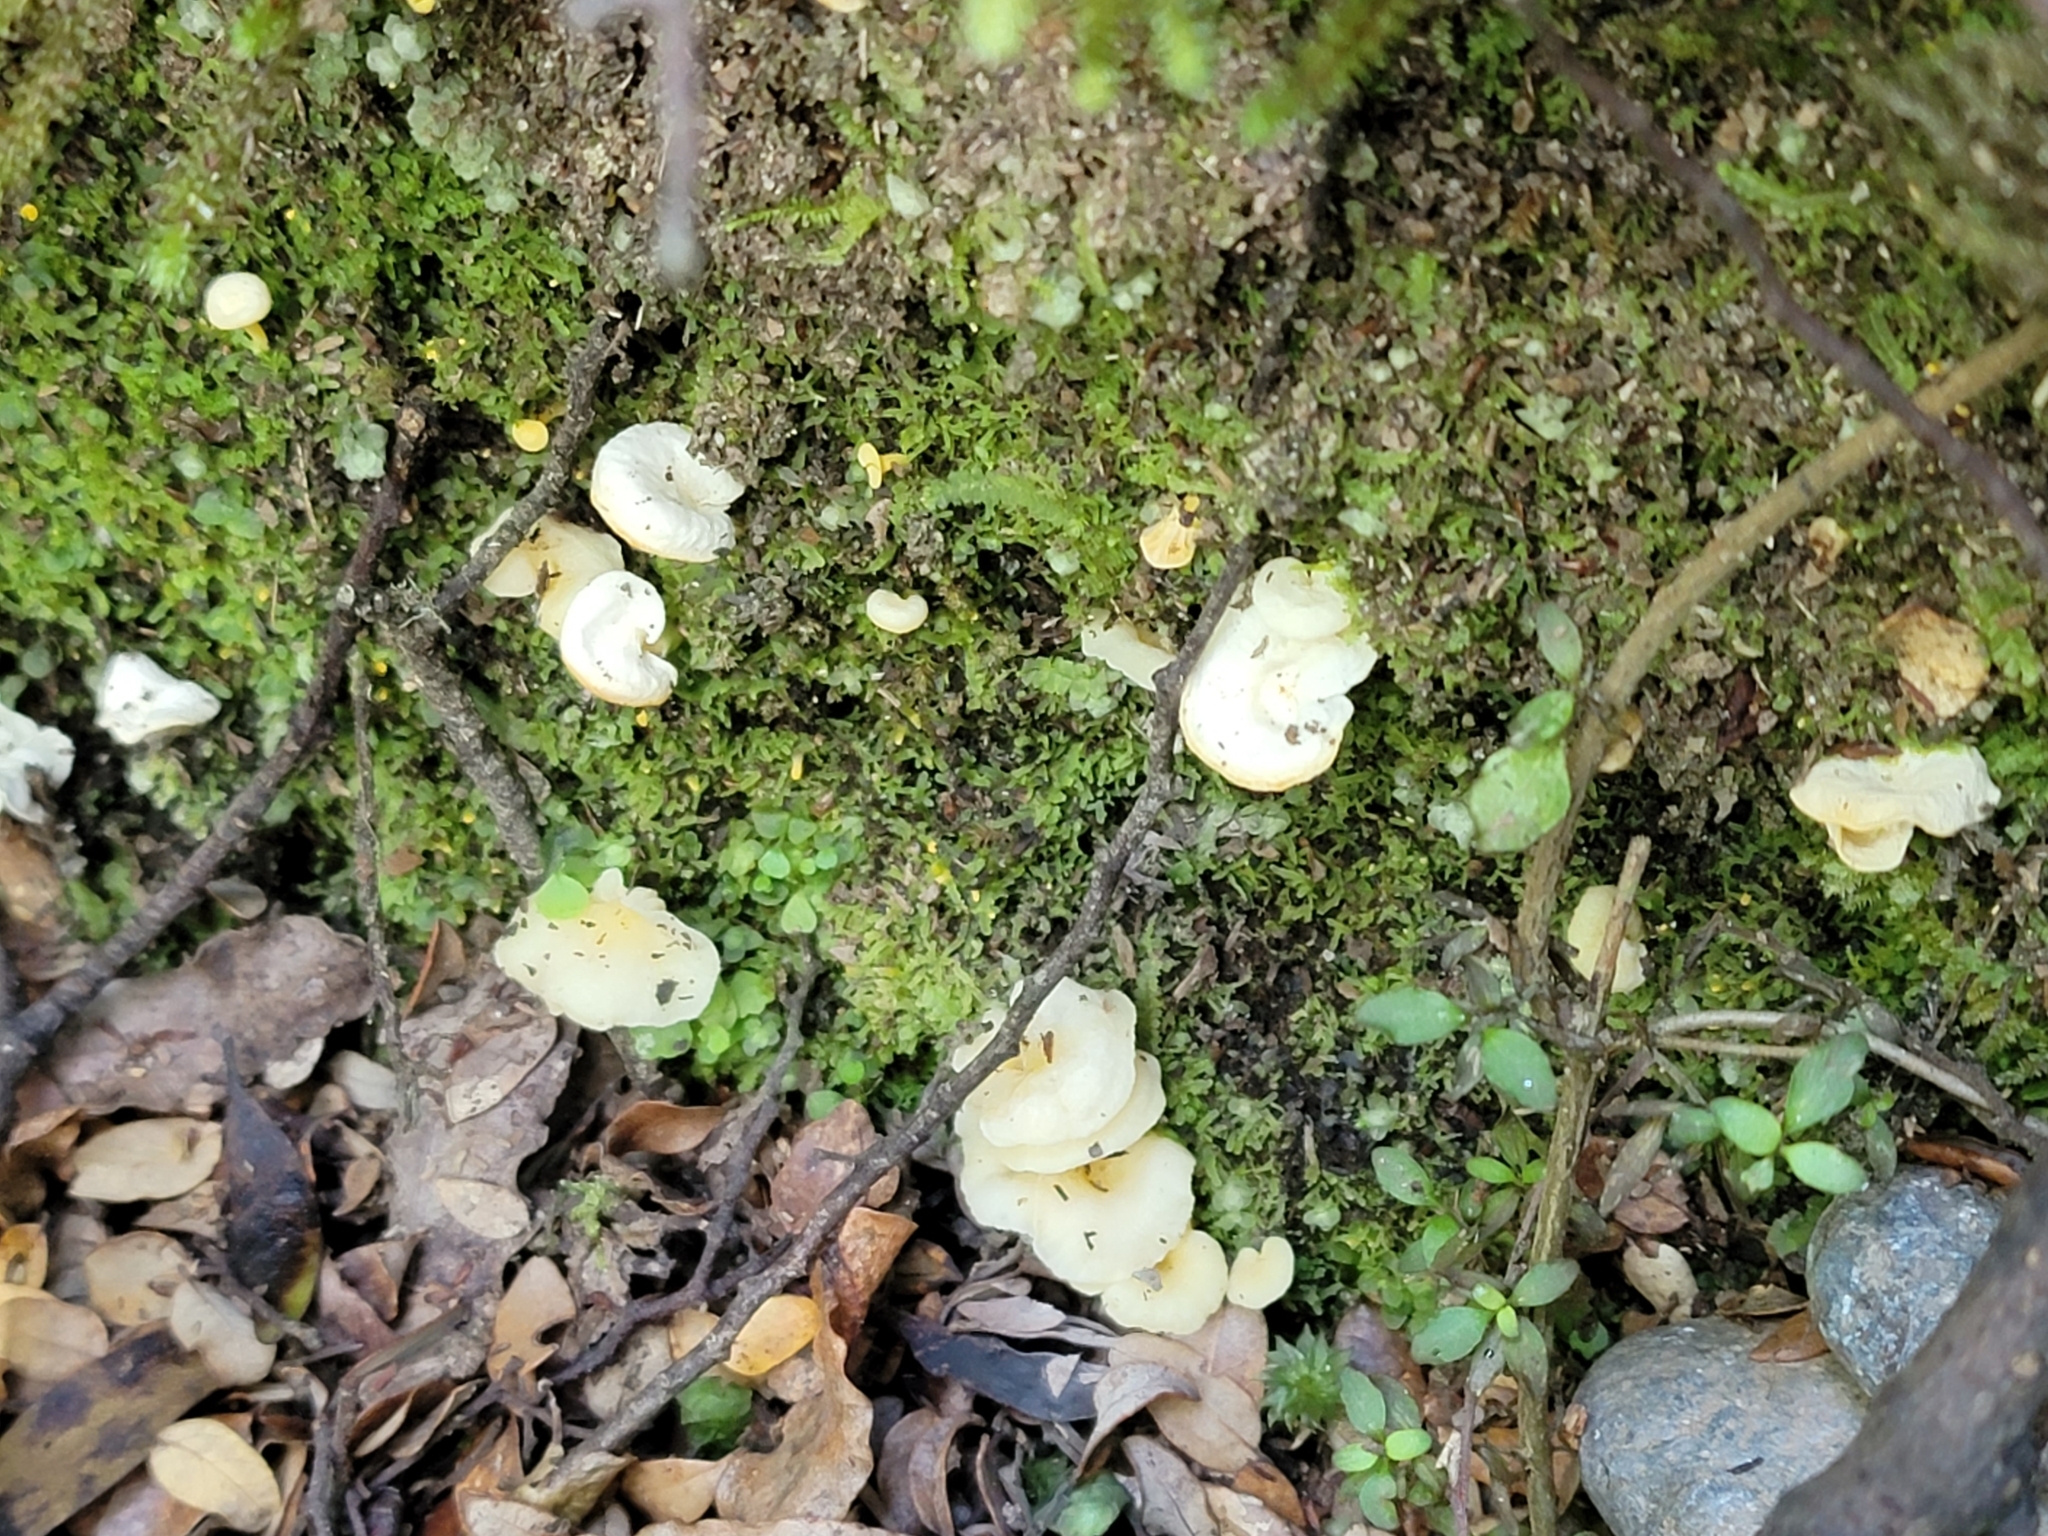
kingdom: Fungi
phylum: Basidiomycota
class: Agaricomycetes
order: Cantharellales
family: Hydnaceae
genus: Cantharellus
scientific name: Cantharellus wellingtonensis
